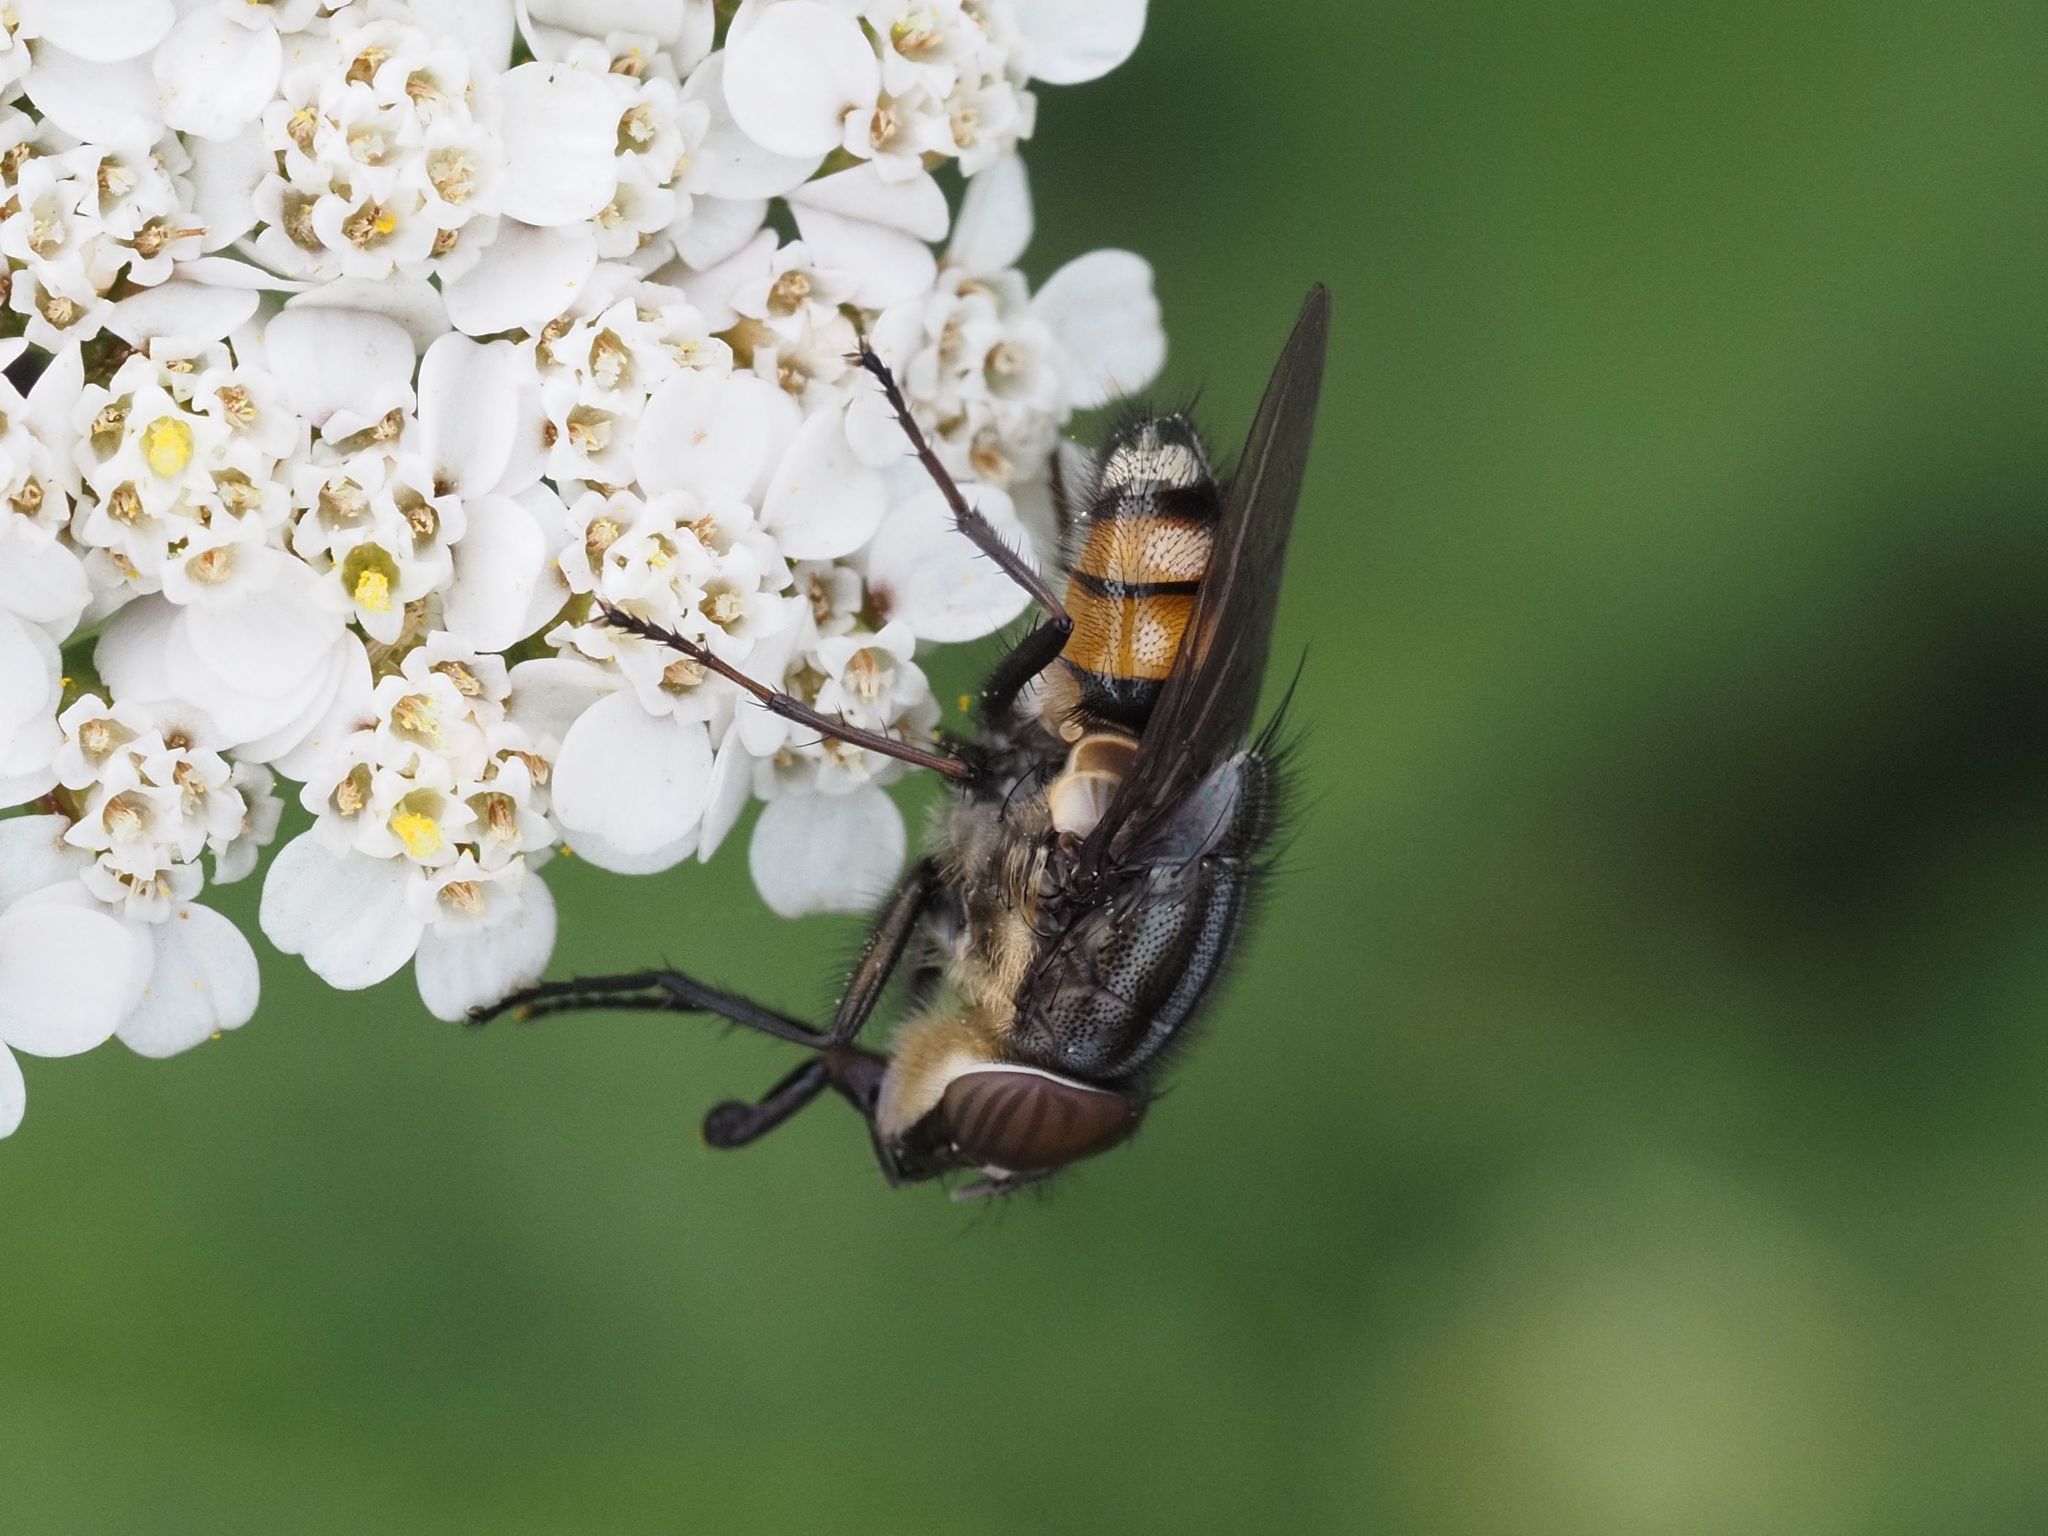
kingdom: Animalia
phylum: Arthropoda
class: Insecta
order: Diptera
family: Calliphoridae
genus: Stomorhina
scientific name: Stomorhina lunata
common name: Locust blowfly
